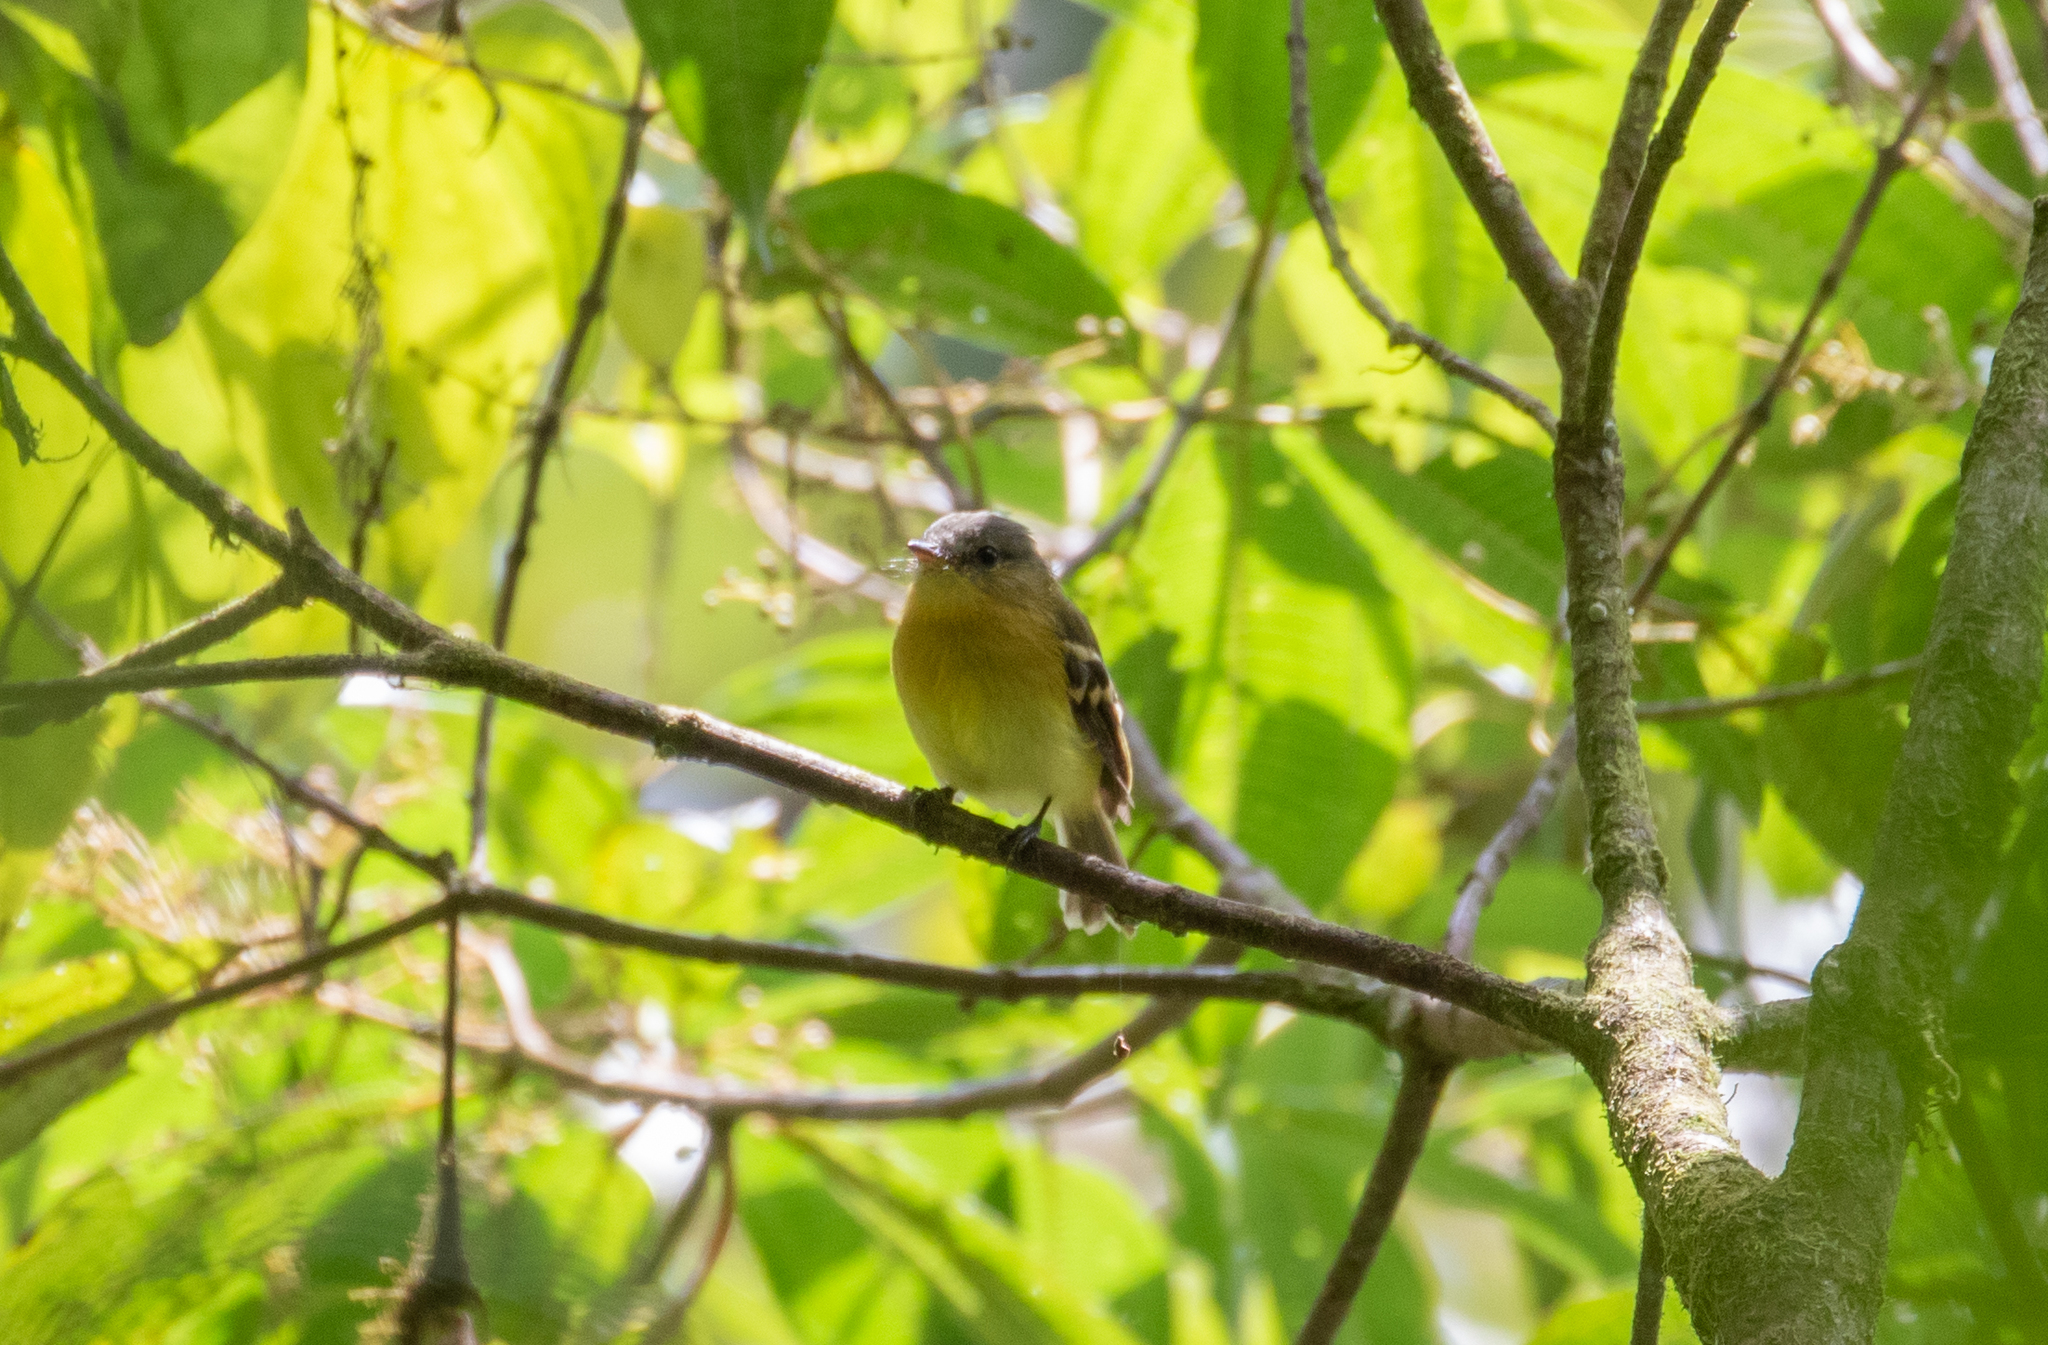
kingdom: Animalia
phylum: Chordata
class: Aves
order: Passeriformes
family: Tyrannidae
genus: Myiophobus
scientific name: Myiophobus pulcher
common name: Handsome flycatcher
